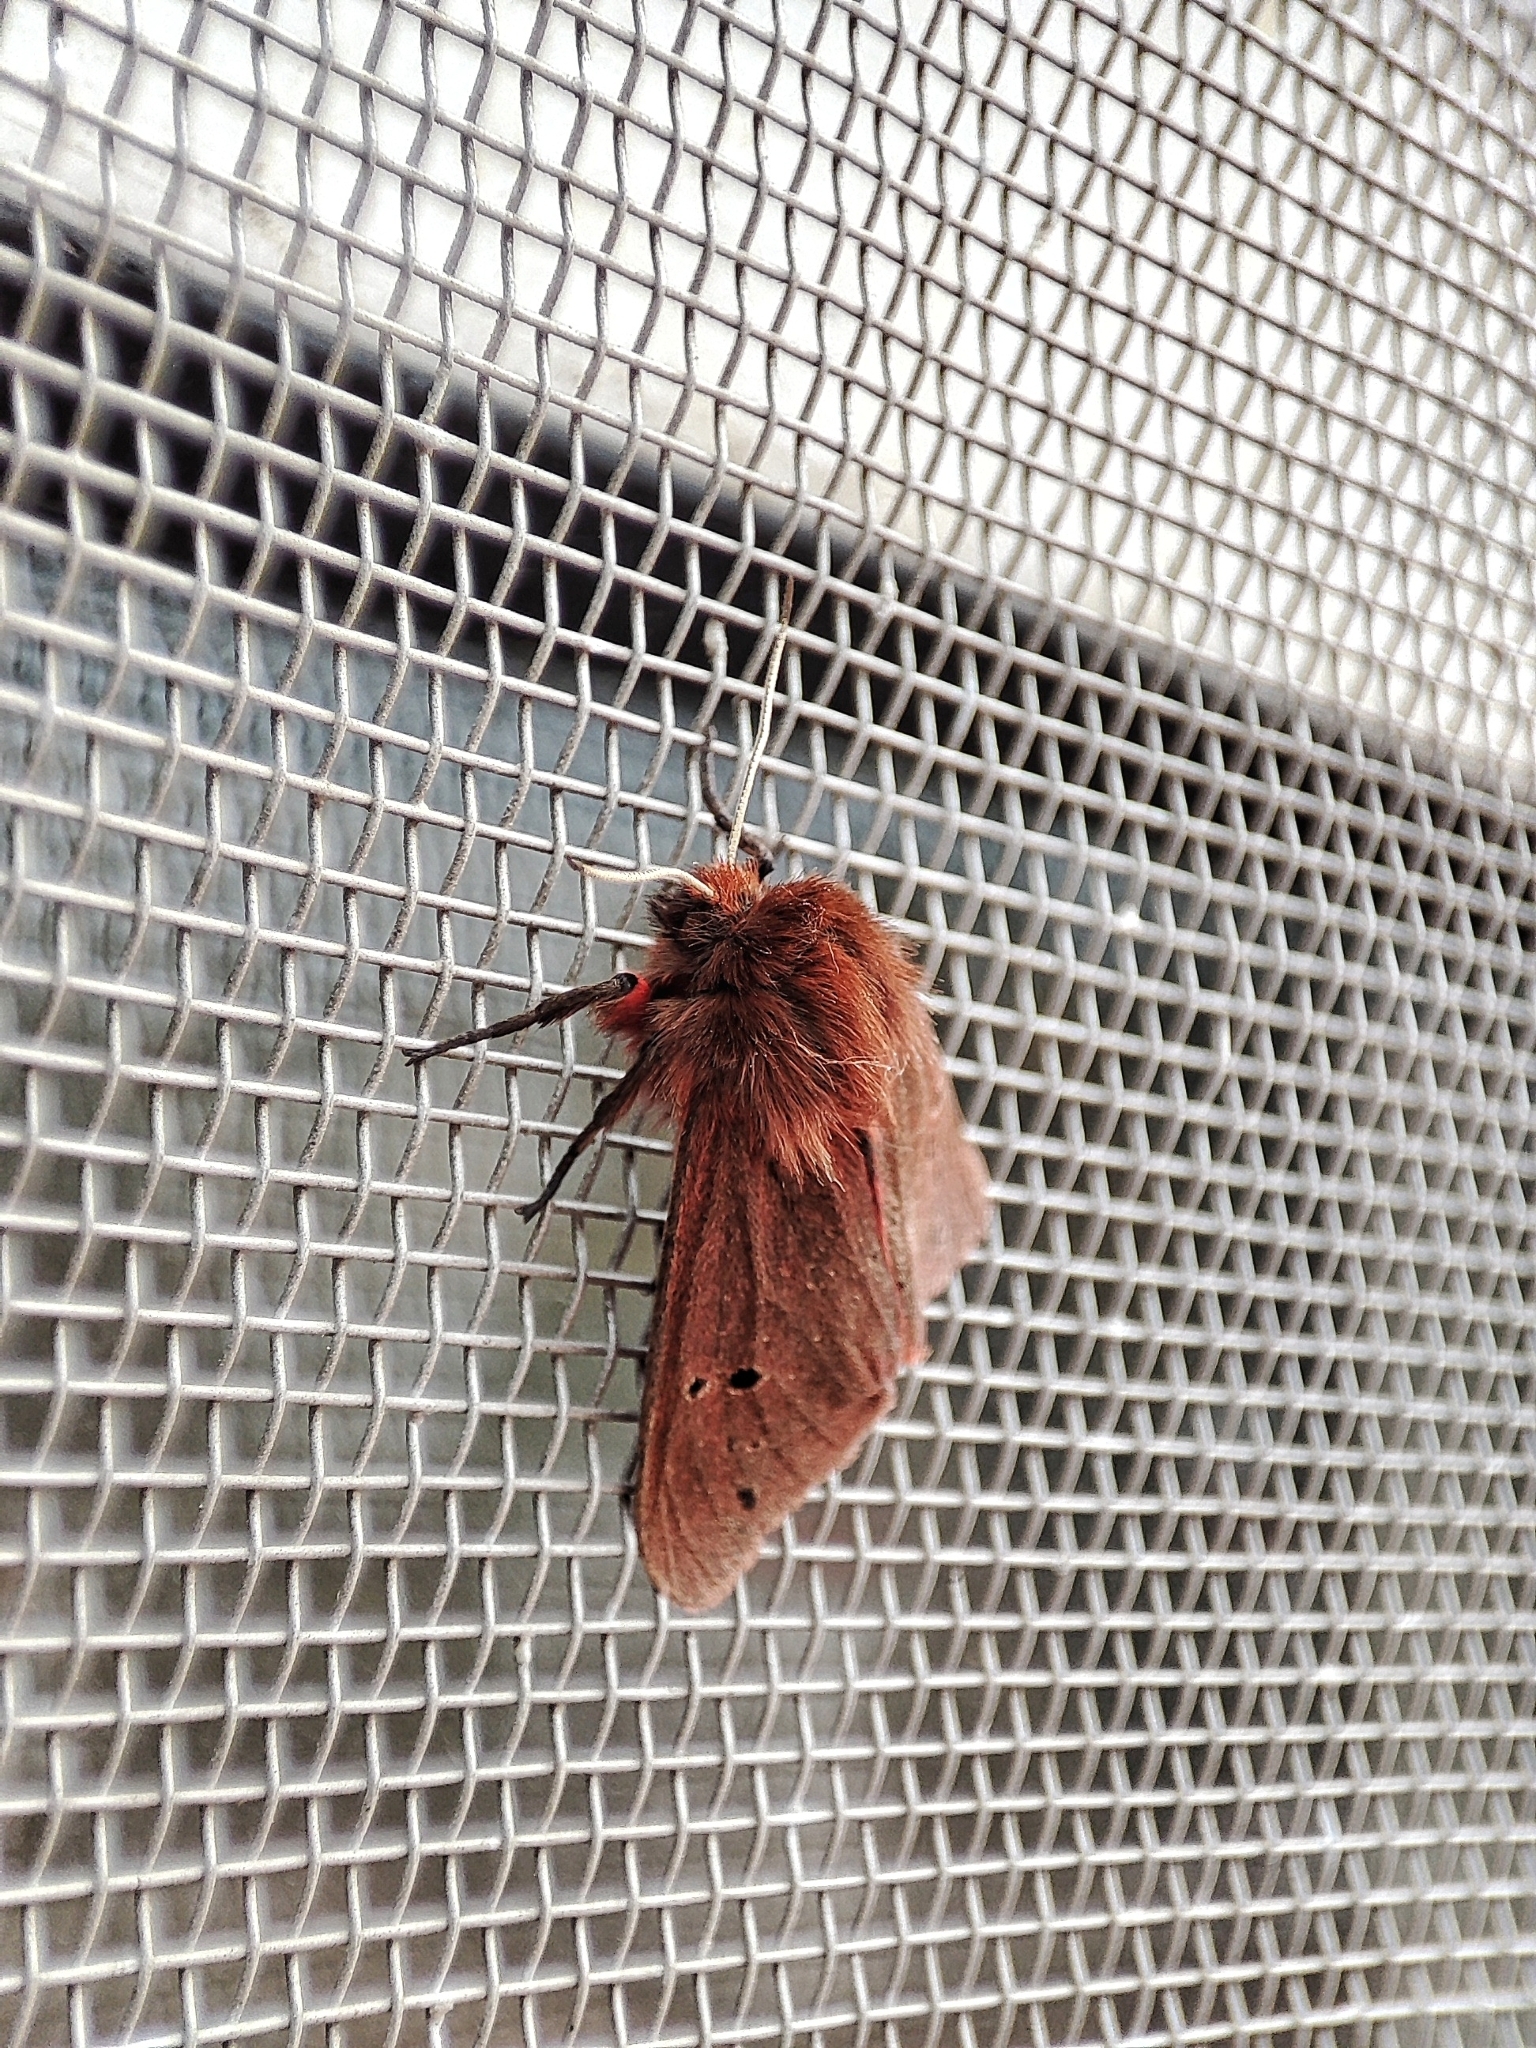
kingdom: Animalia
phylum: Arthropoda
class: Insecta
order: Lepidoptera
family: Erebidae
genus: Phragmatobia
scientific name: Phragmatobia fuliginosa
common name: Ruby tiger
